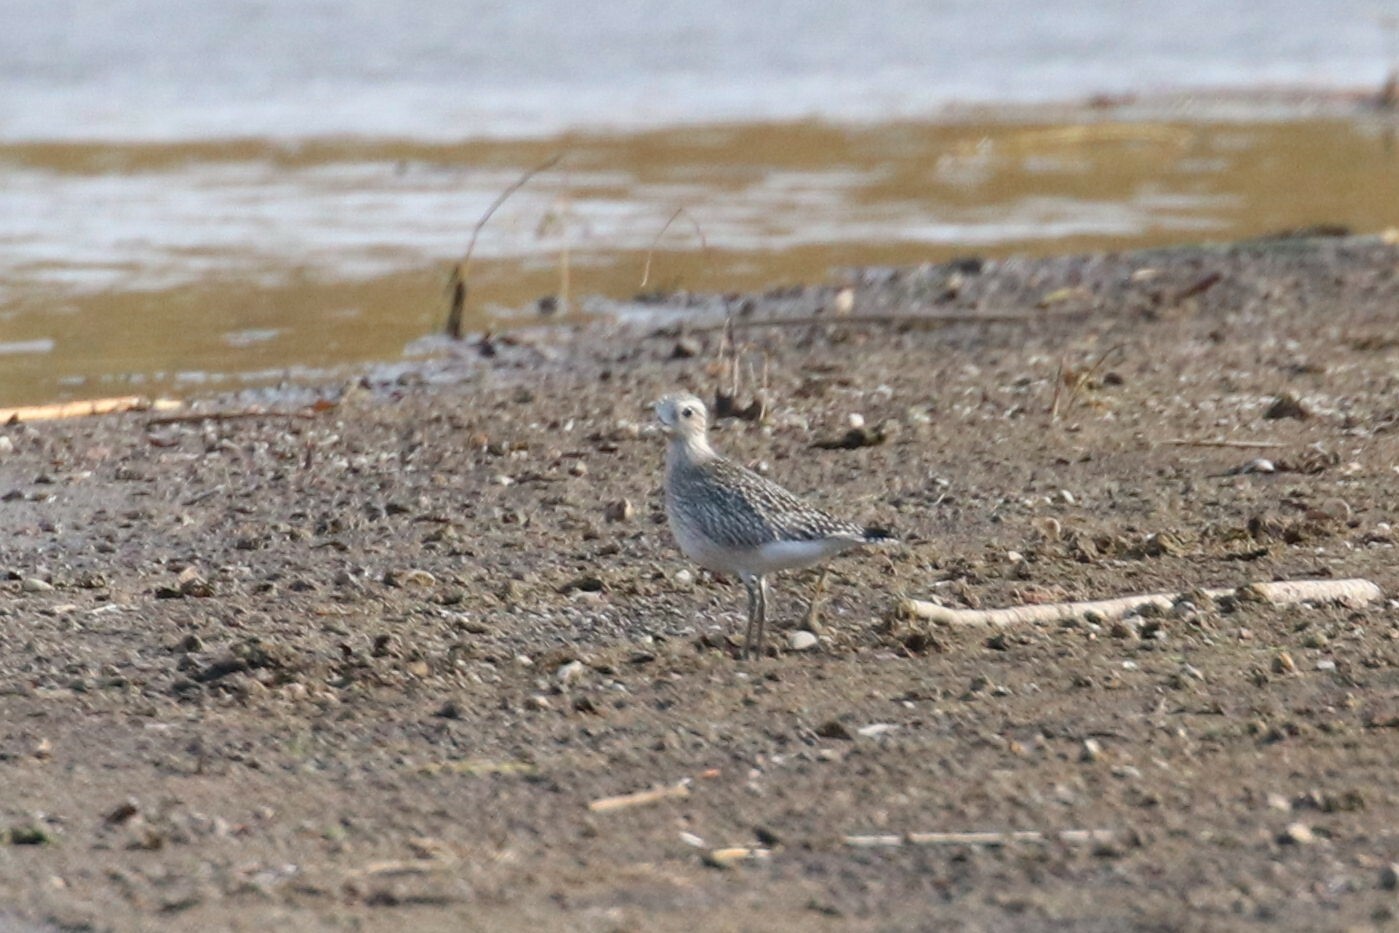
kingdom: Animalia
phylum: Chordata
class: Aves
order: Charadriiformes
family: Charadriidae
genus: Pluvialis
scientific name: Pluvialis squatarola
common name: Grey plover
